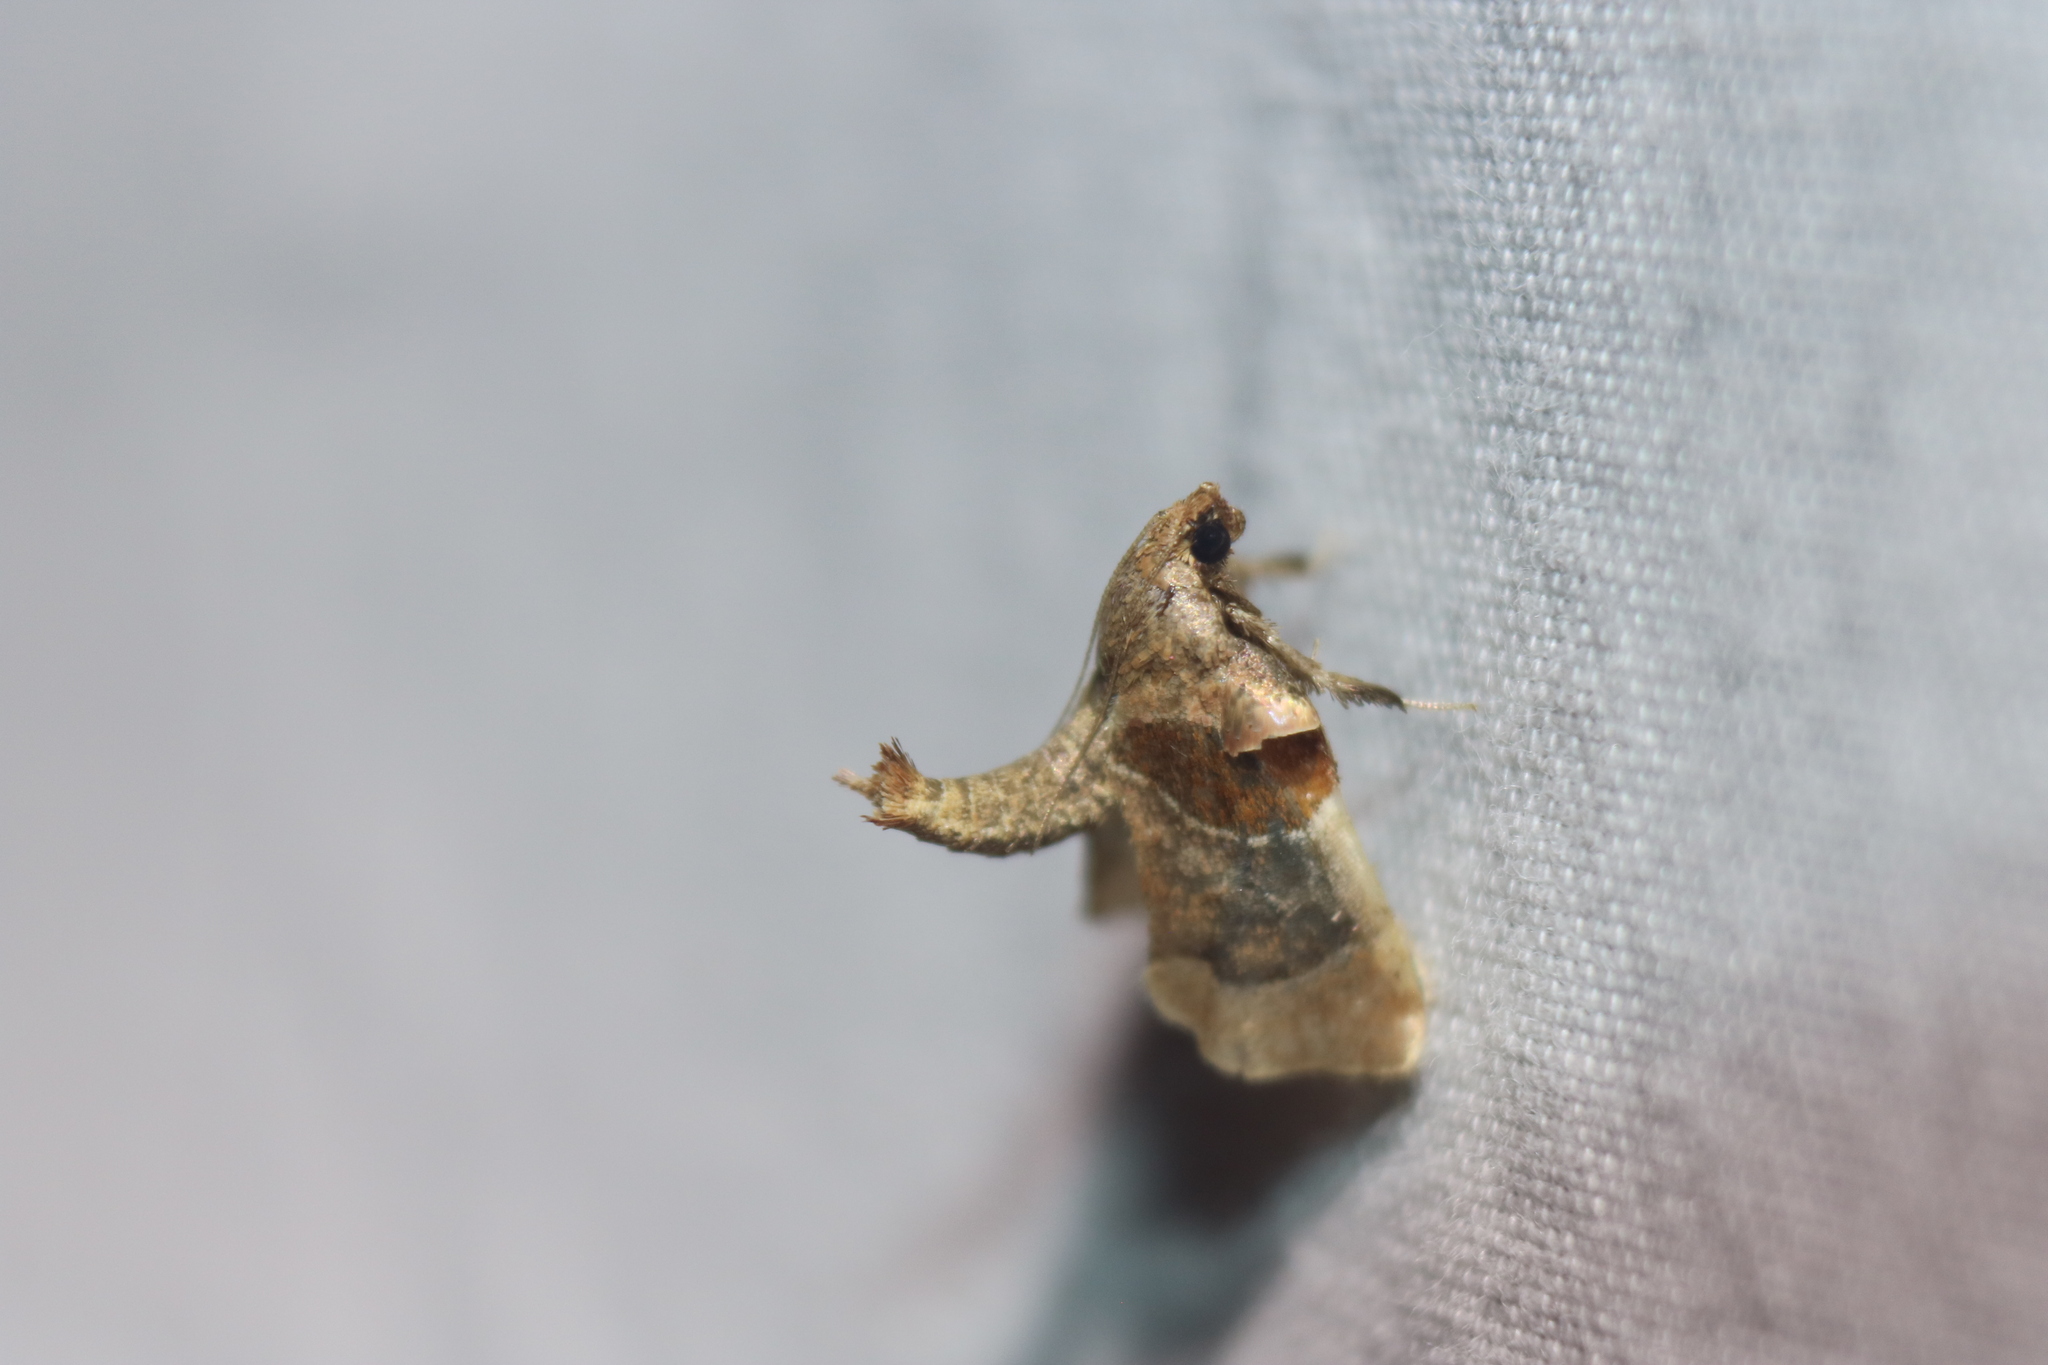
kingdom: Animalia
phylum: Arthropoda
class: Insecta
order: Lepidoptera
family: Pyralidae
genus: Tosale
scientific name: Tosale oviplagalis
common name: Dimorphic tosale moth
